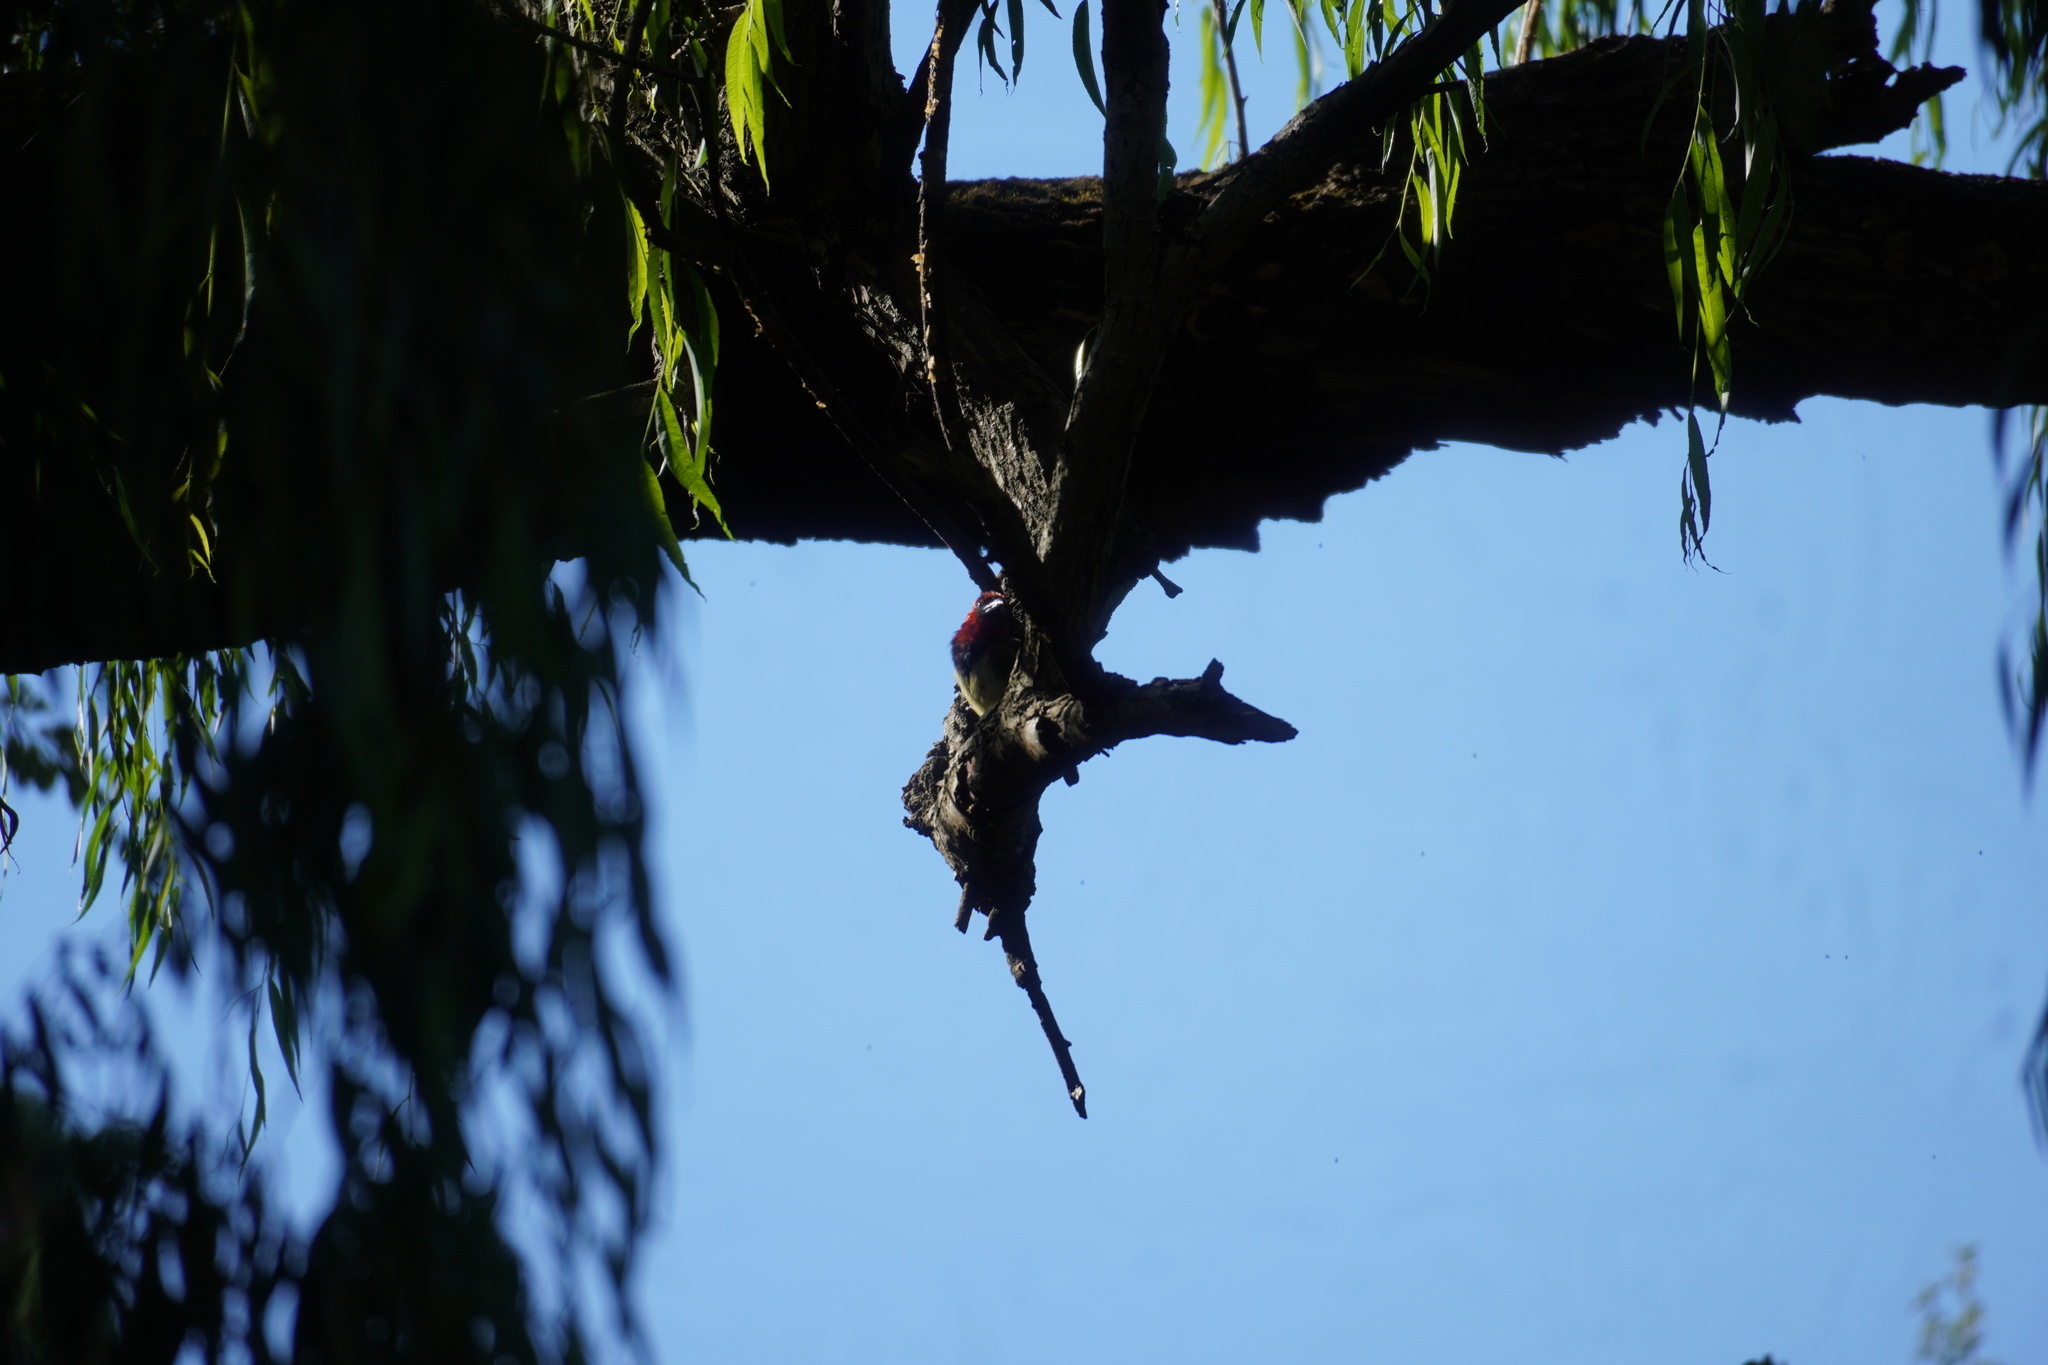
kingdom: Animalia
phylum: Chordata
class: Aves
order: Piciformes
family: Lybiidae
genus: Lybius
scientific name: Lybius torquatus
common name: Black-collared barbet
